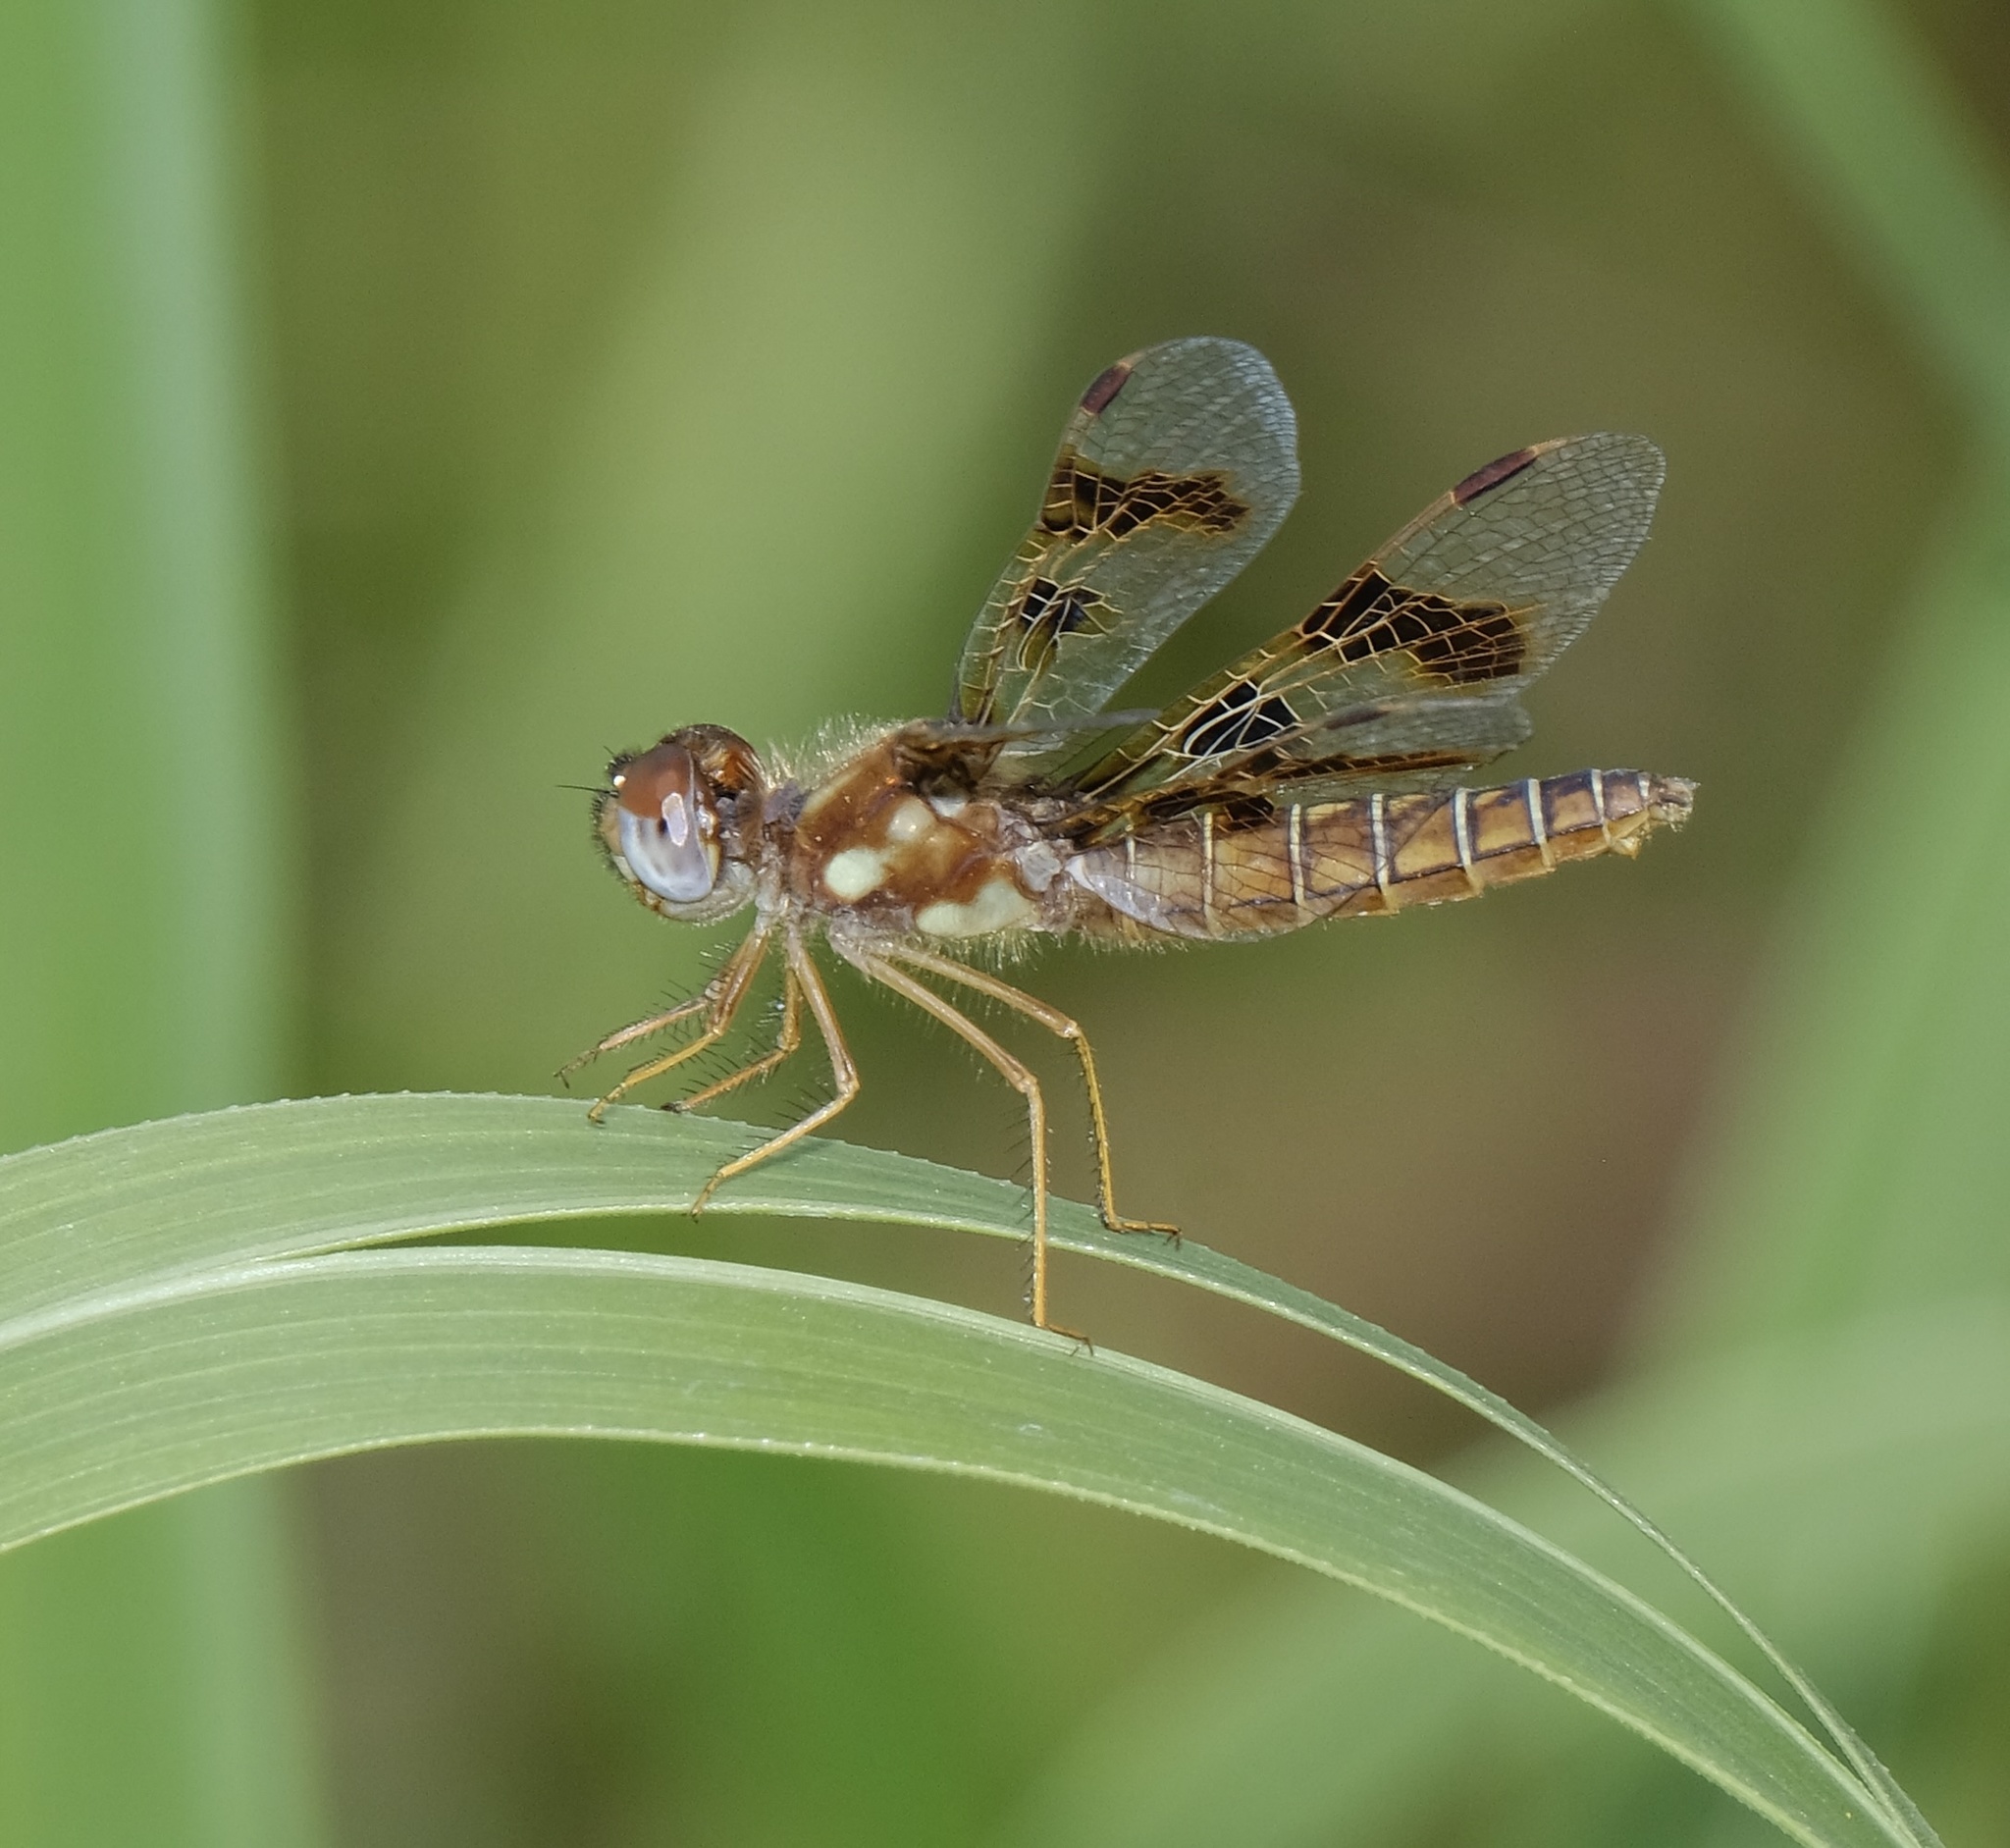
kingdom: Animalia
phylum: Arthropoda
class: Insecta
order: Odonata
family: Libellulidae
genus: Perithemis
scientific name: Perithemis tenera
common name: Eastern amberwing
